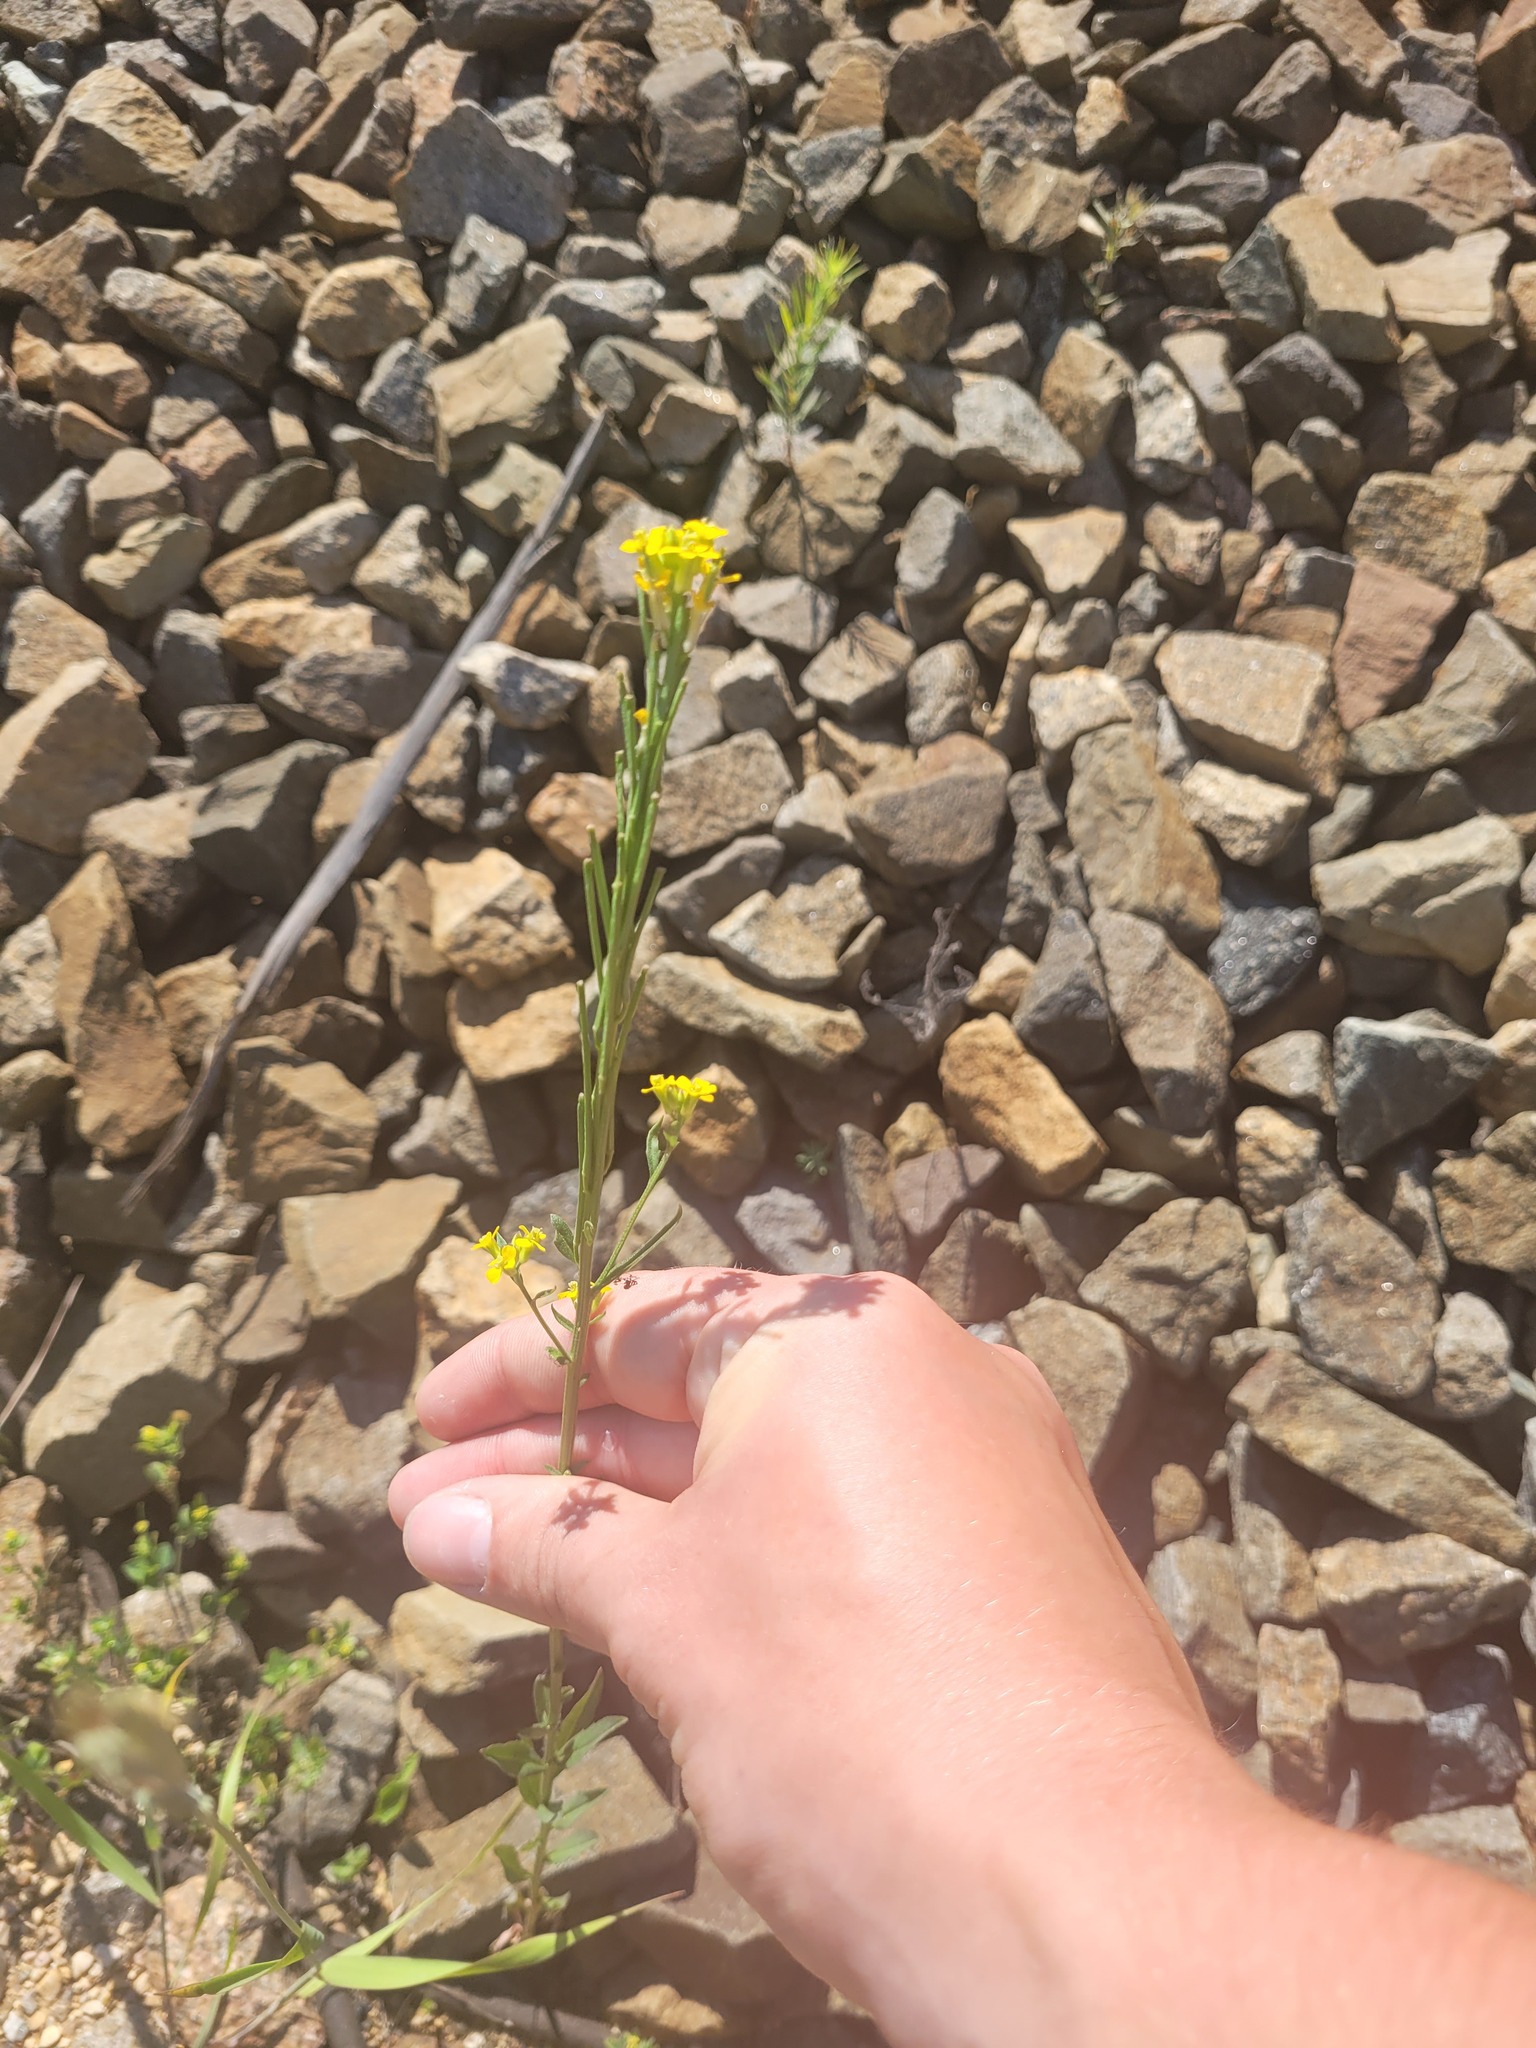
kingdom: Plantae
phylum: Tracheophyta
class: Magnoliopsida
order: Brassicales
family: Brassicaceae
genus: Erysimum
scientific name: Erysimum hieraciifolium
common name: European wallflower
